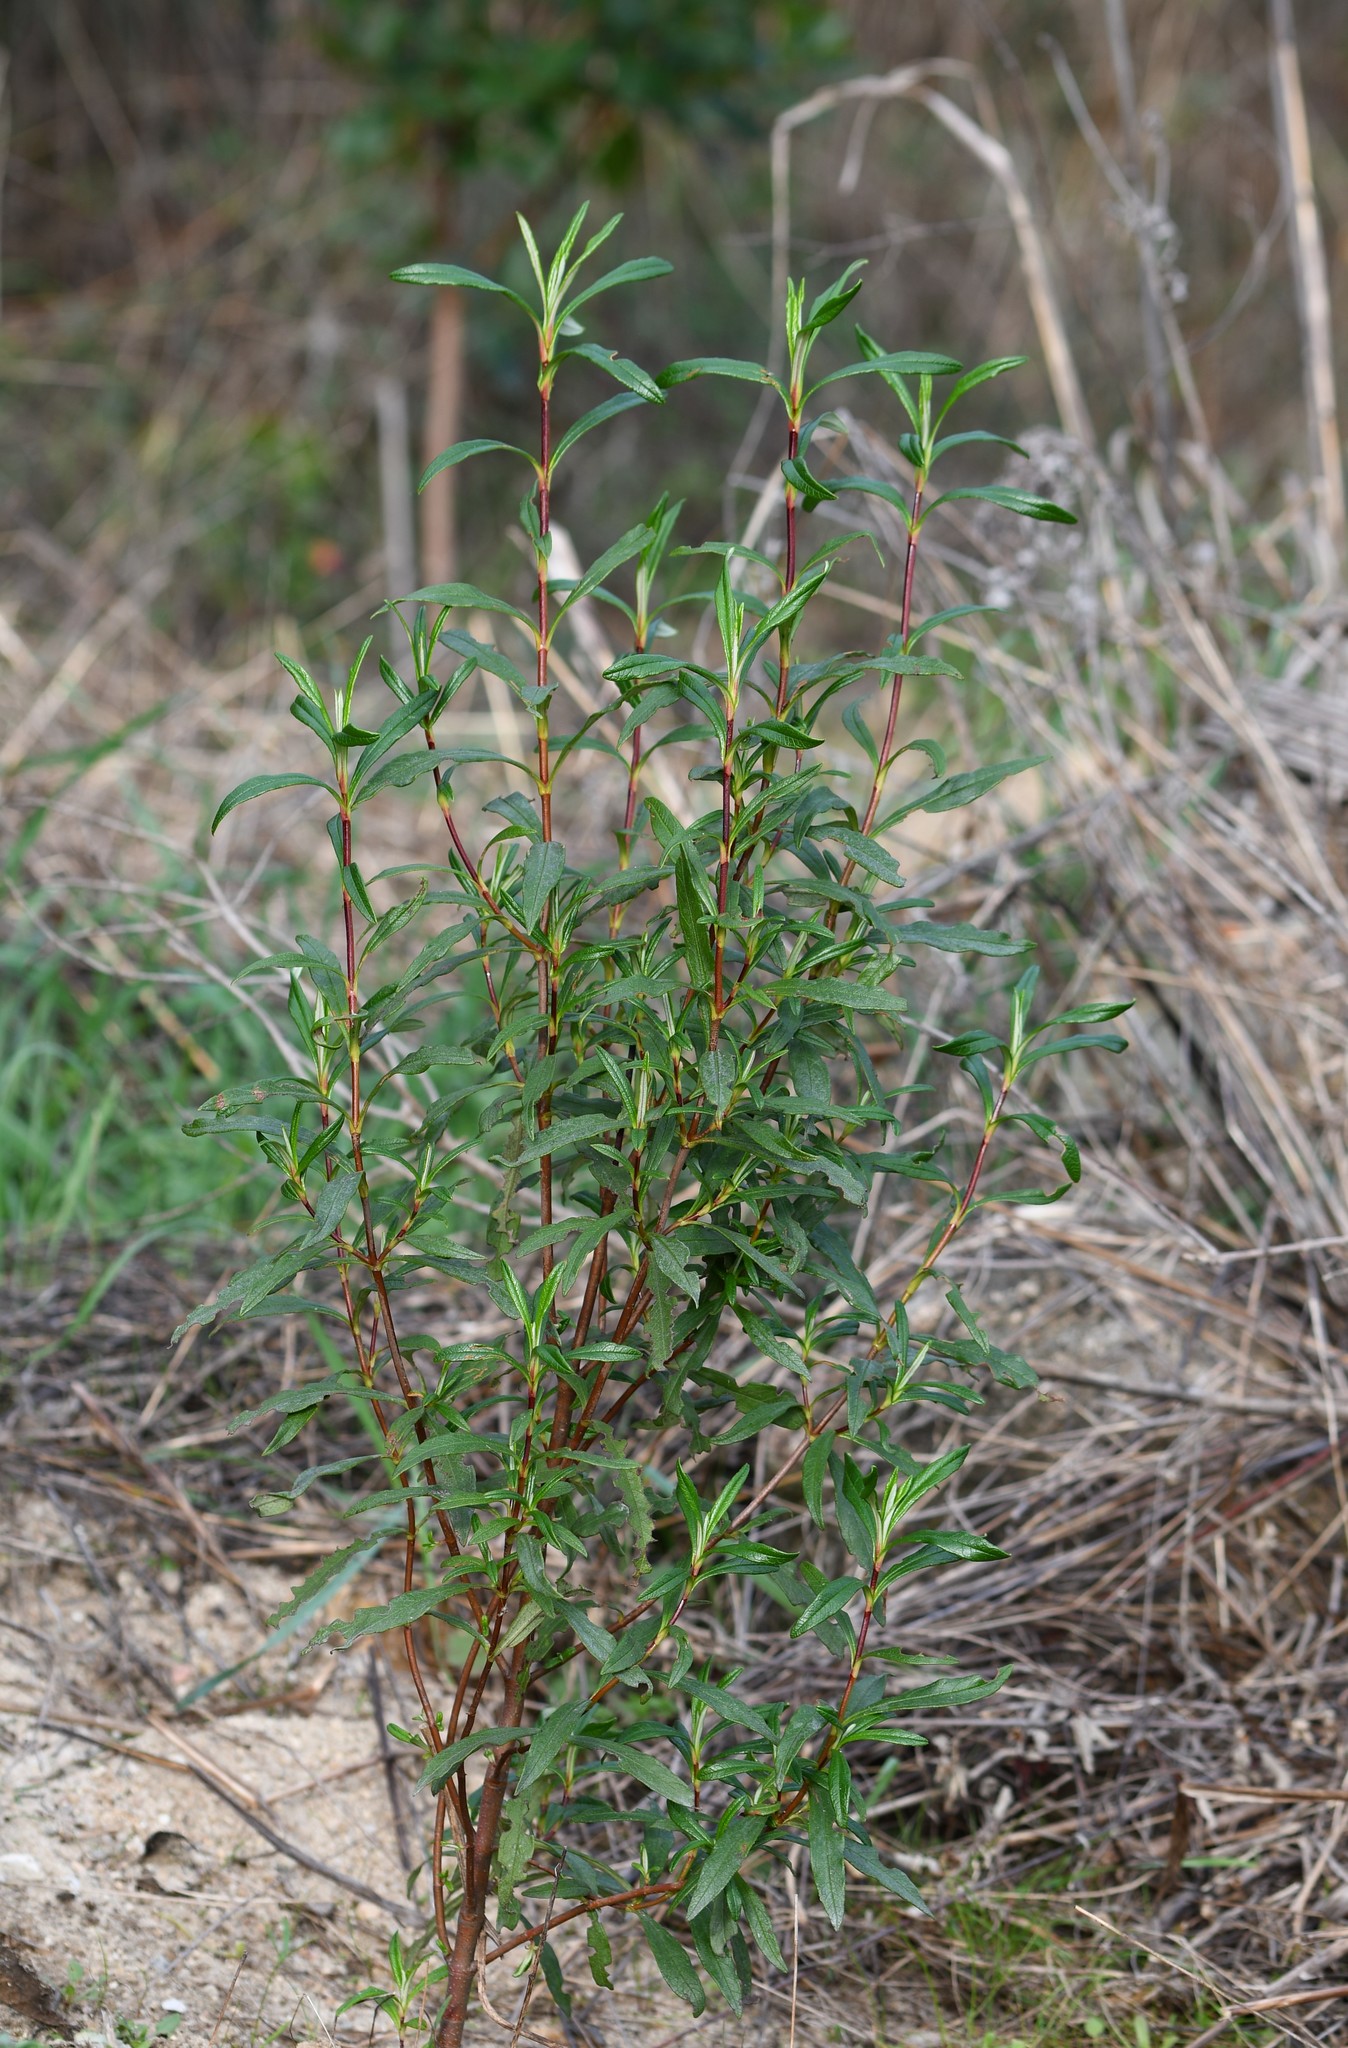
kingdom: Plantae
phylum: Tracheophyta
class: Magnoliopsida
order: Malvales
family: Cistaceae
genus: Cistus
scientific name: Cistus ladanifer
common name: Common gum cistus
